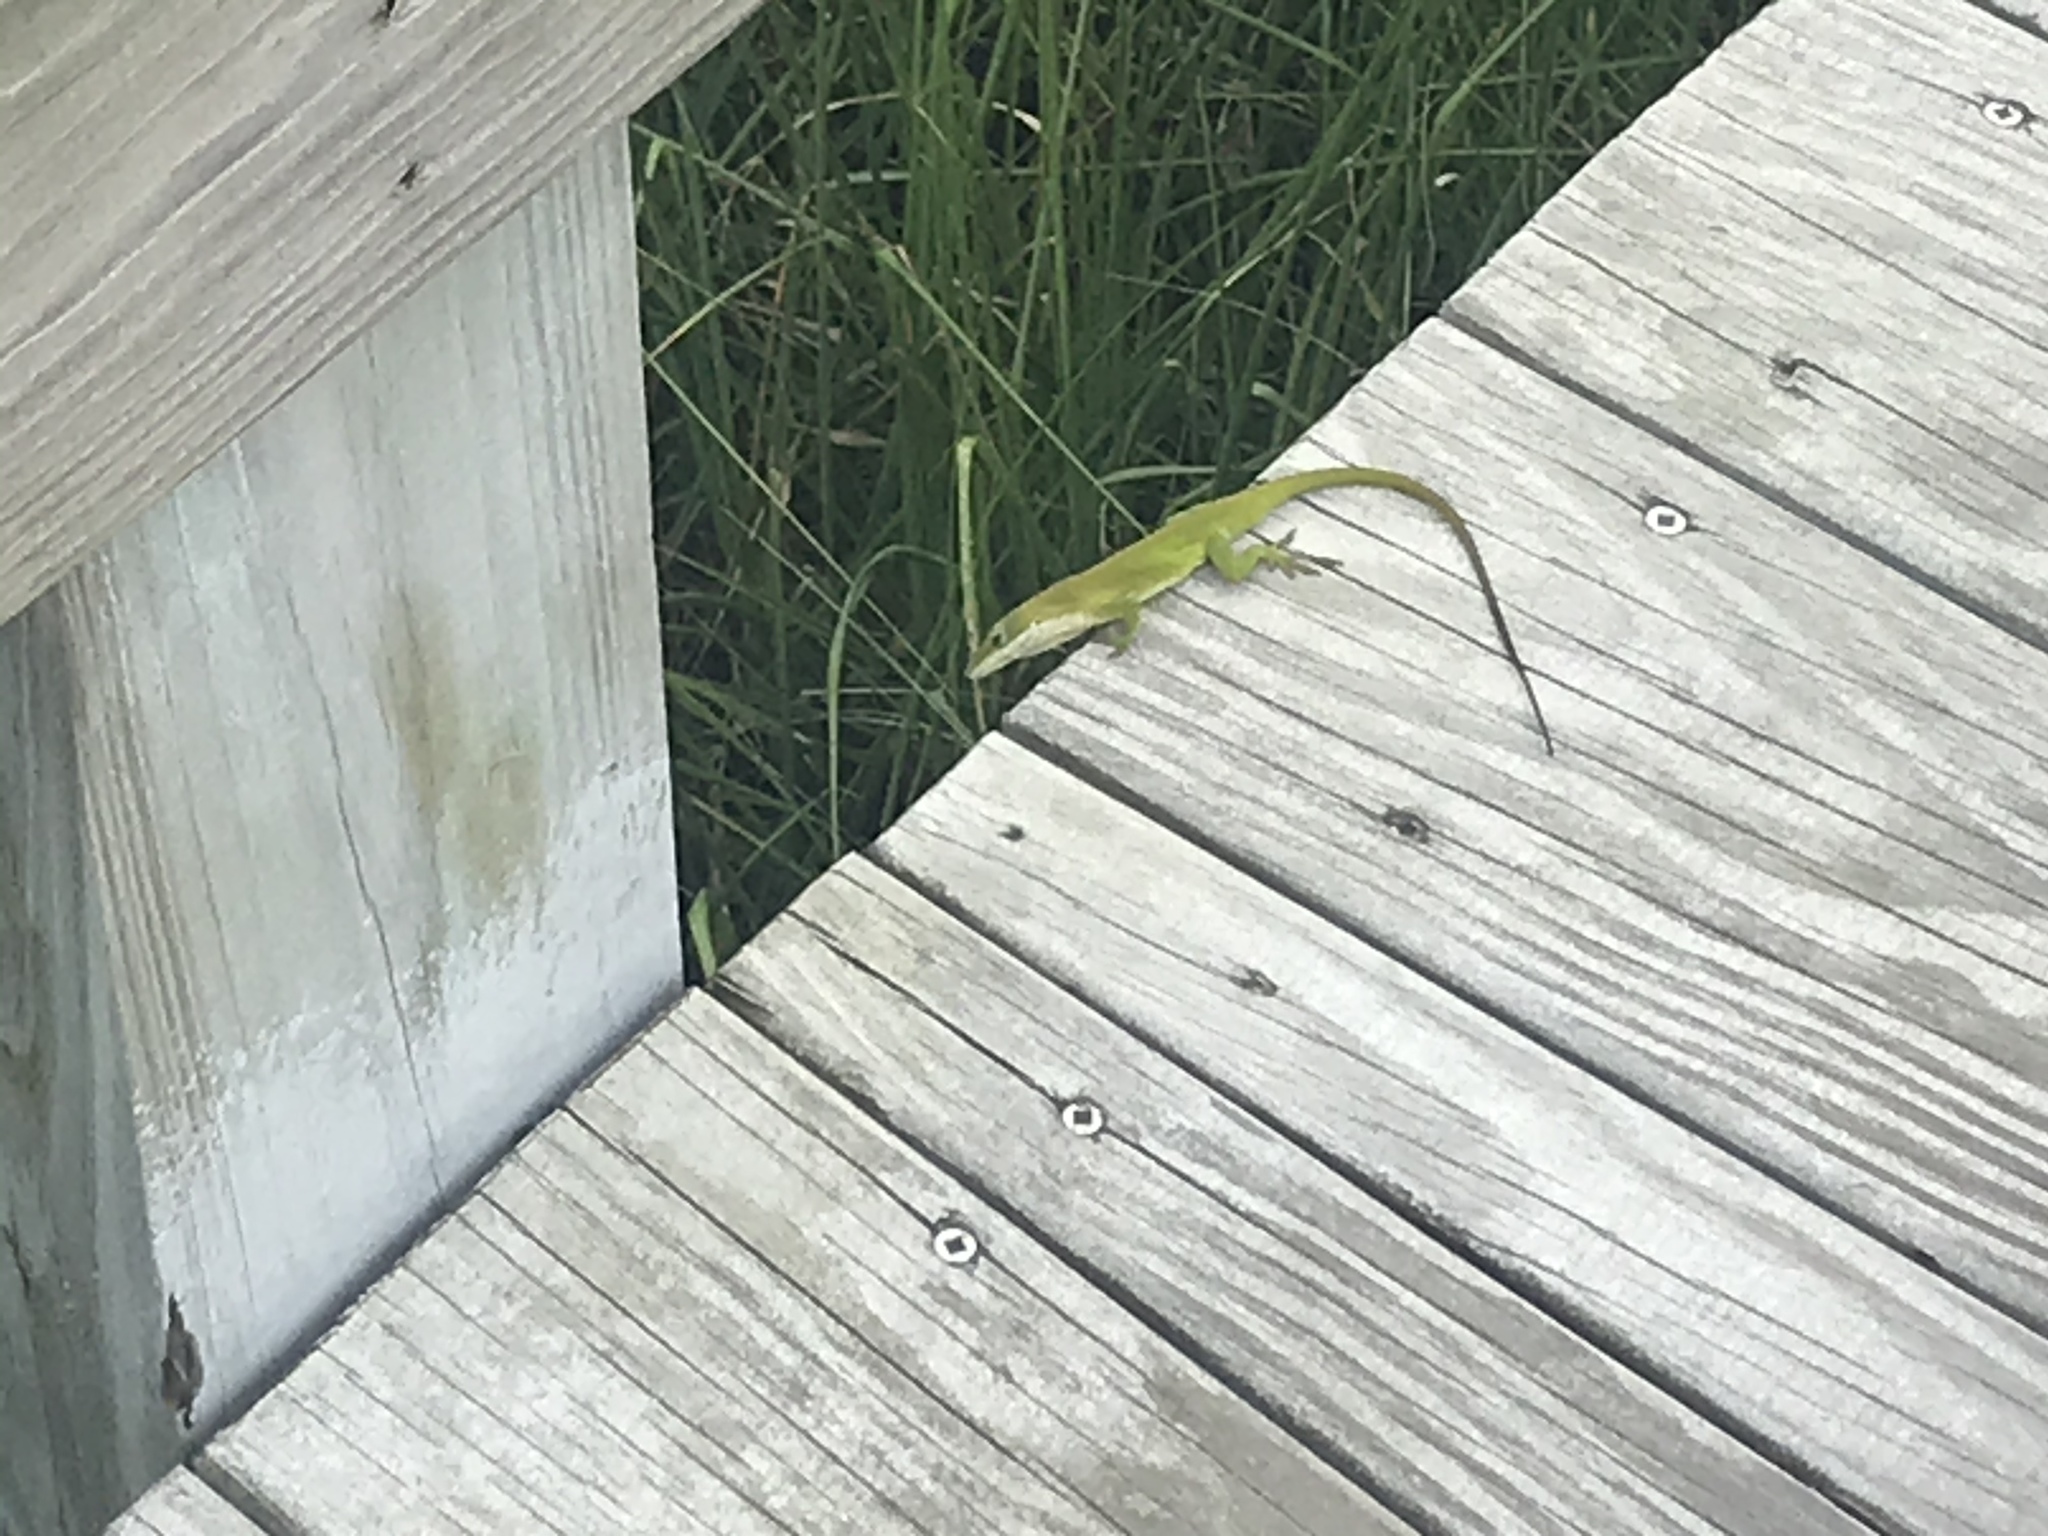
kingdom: Animalia
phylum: Chordata
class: Squamata
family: Dactyloidae
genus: Anolis
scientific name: Anolis carolinensis
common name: Green anole
